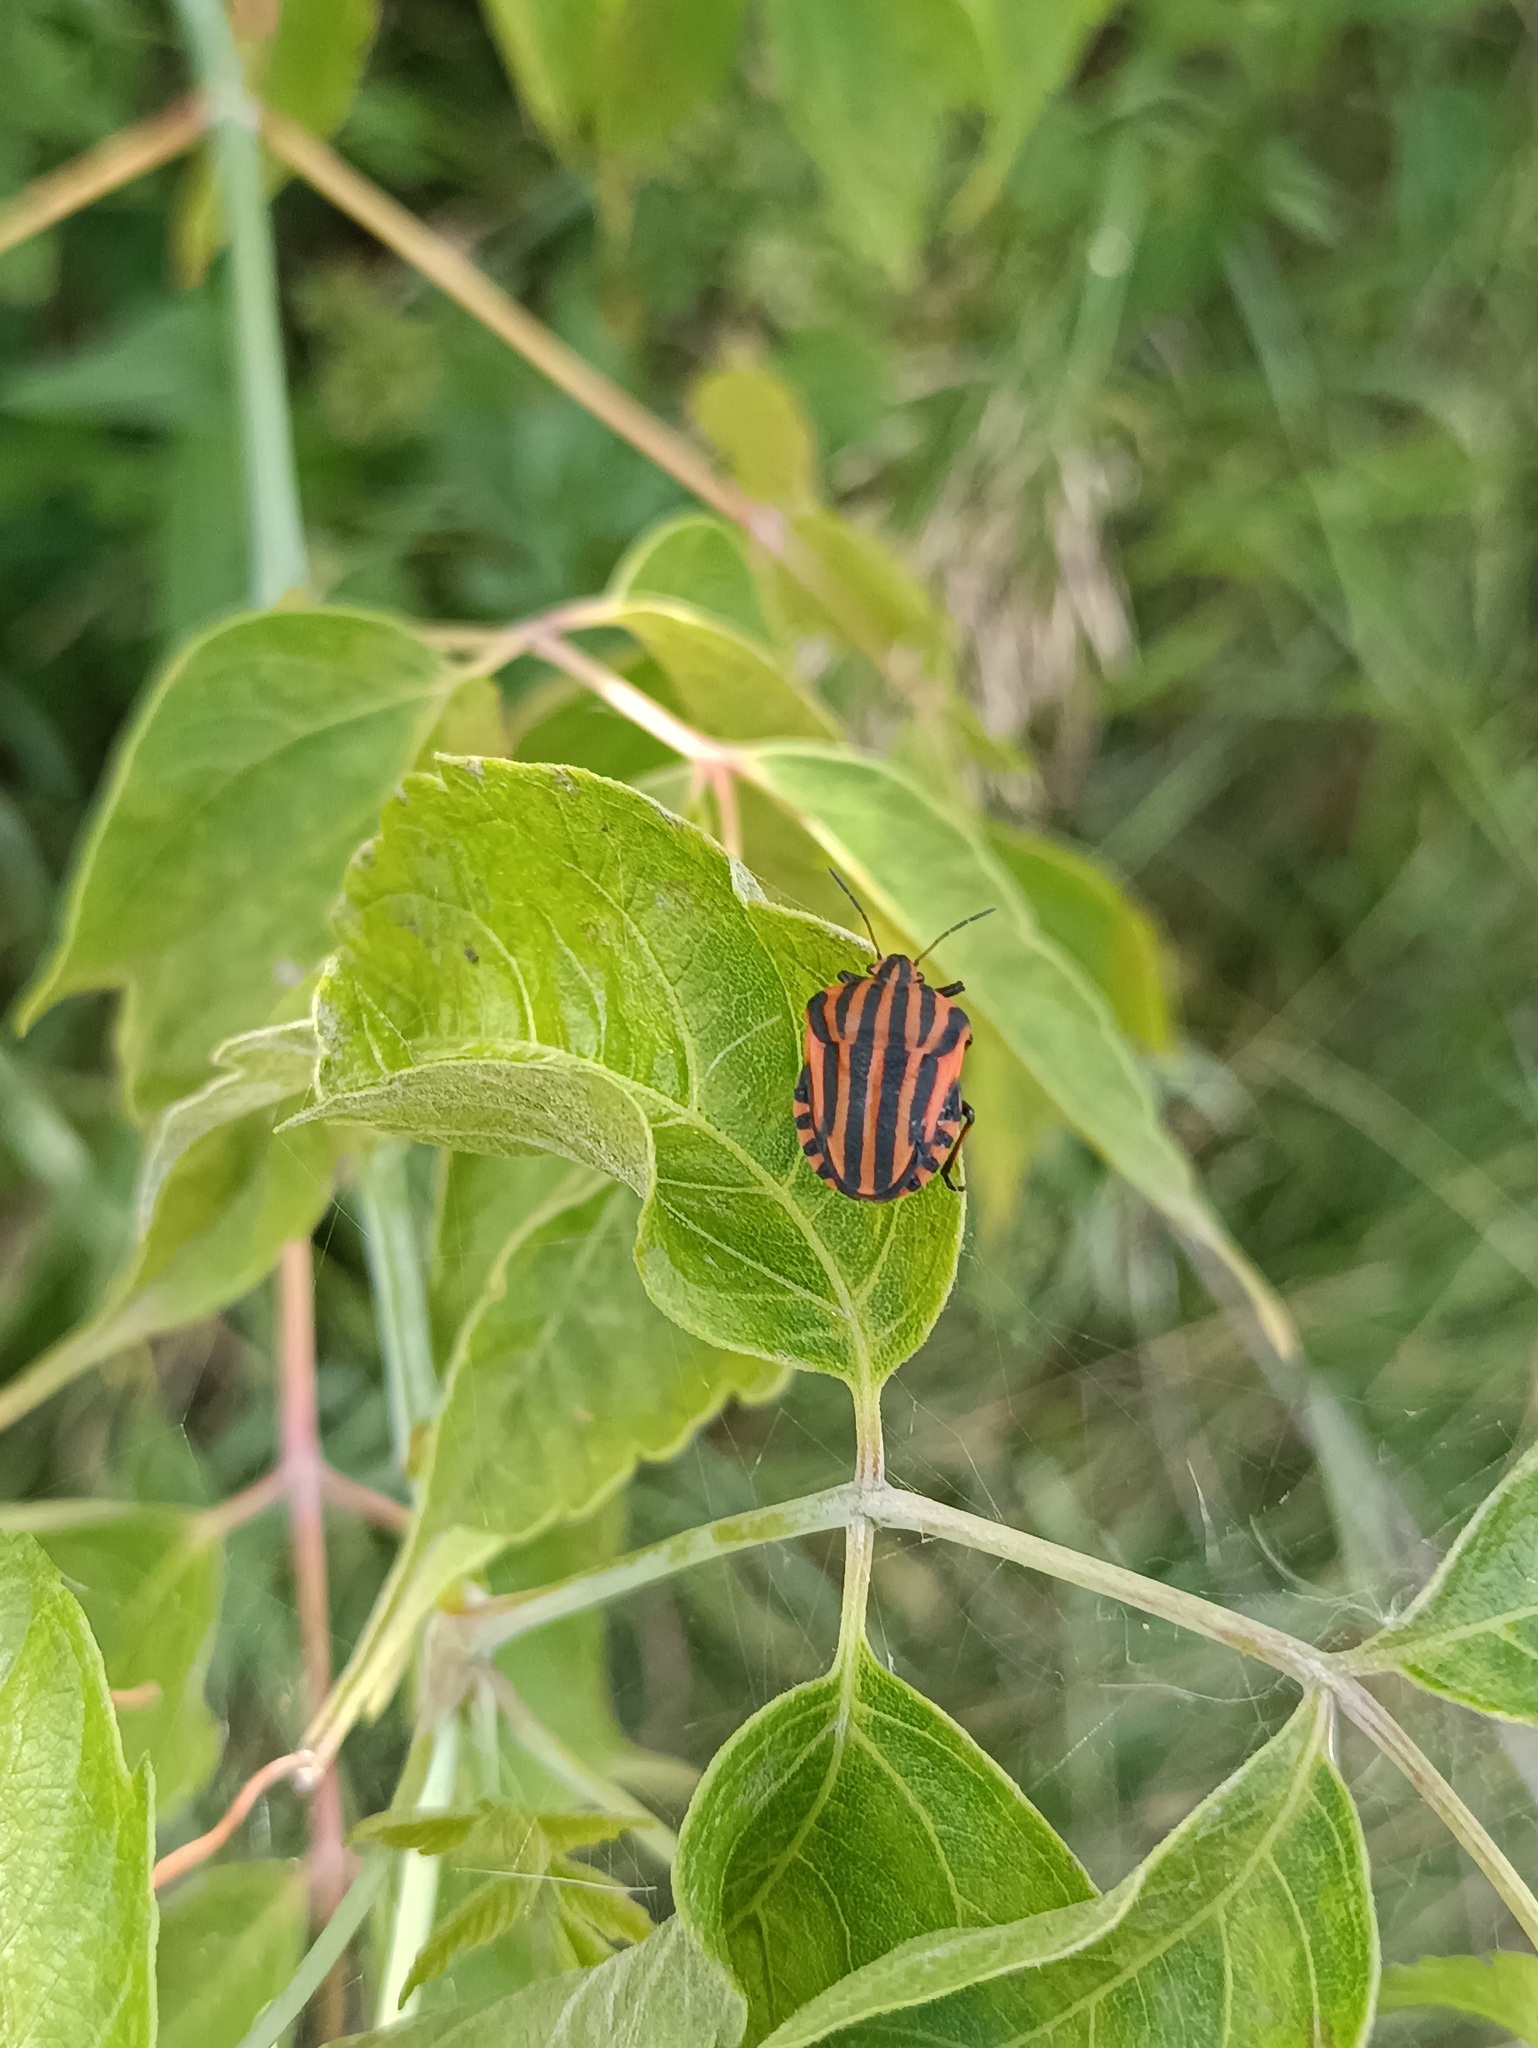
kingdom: Animalia
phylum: Arthropoda
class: Insecta
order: Hemiptera
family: Pentatomidae
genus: Graphosoma
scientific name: Graphosoma italicum
